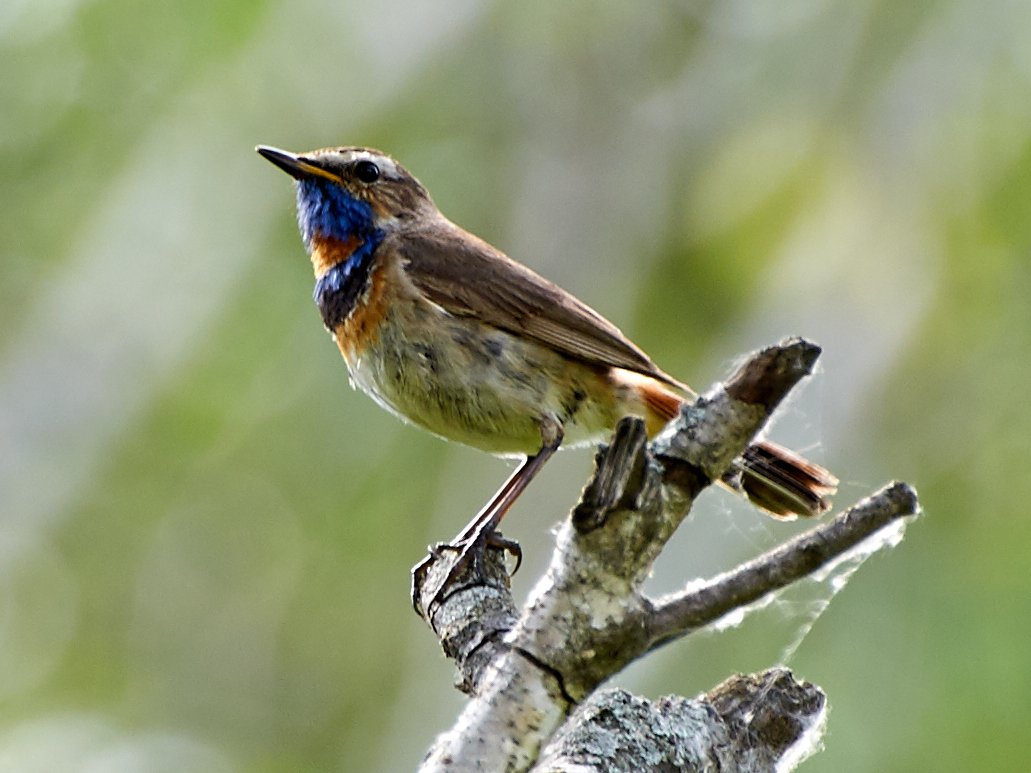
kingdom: Animalia
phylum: Chordata
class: Aves
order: Passeriformes
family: Muscicapidae
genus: Luscinia
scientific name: Luscinia svecica
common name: Bluethroat
